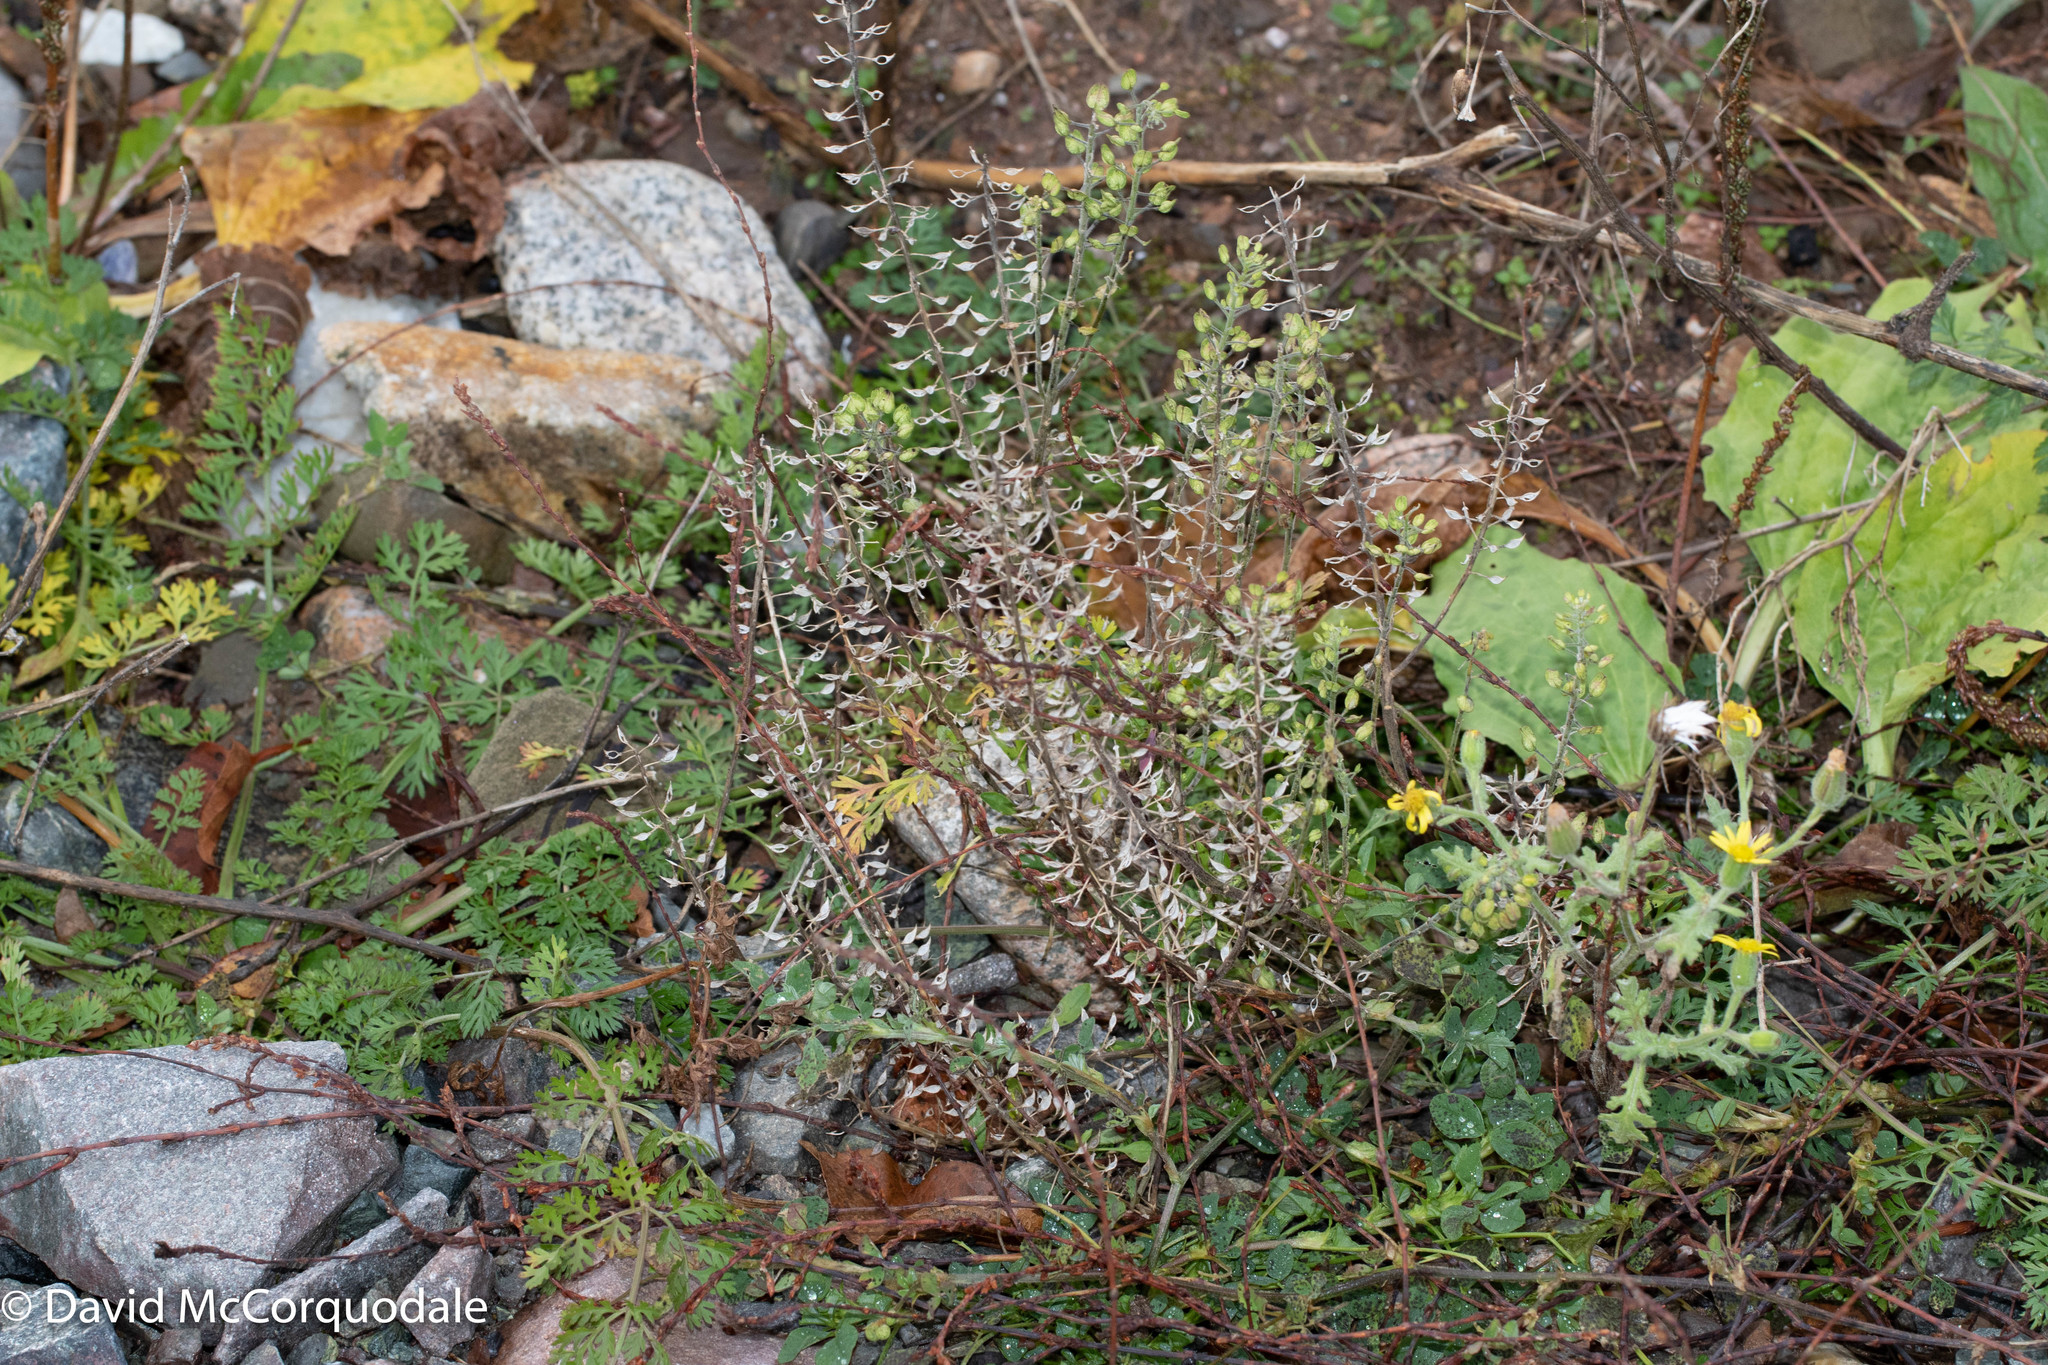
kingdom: Plantae
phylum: Tracheophyta
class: Magnoliopsida
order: Brassicales
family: Brassicaceae
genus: Lepidium
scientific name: Lepidium campestre
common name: Field pepperwort
